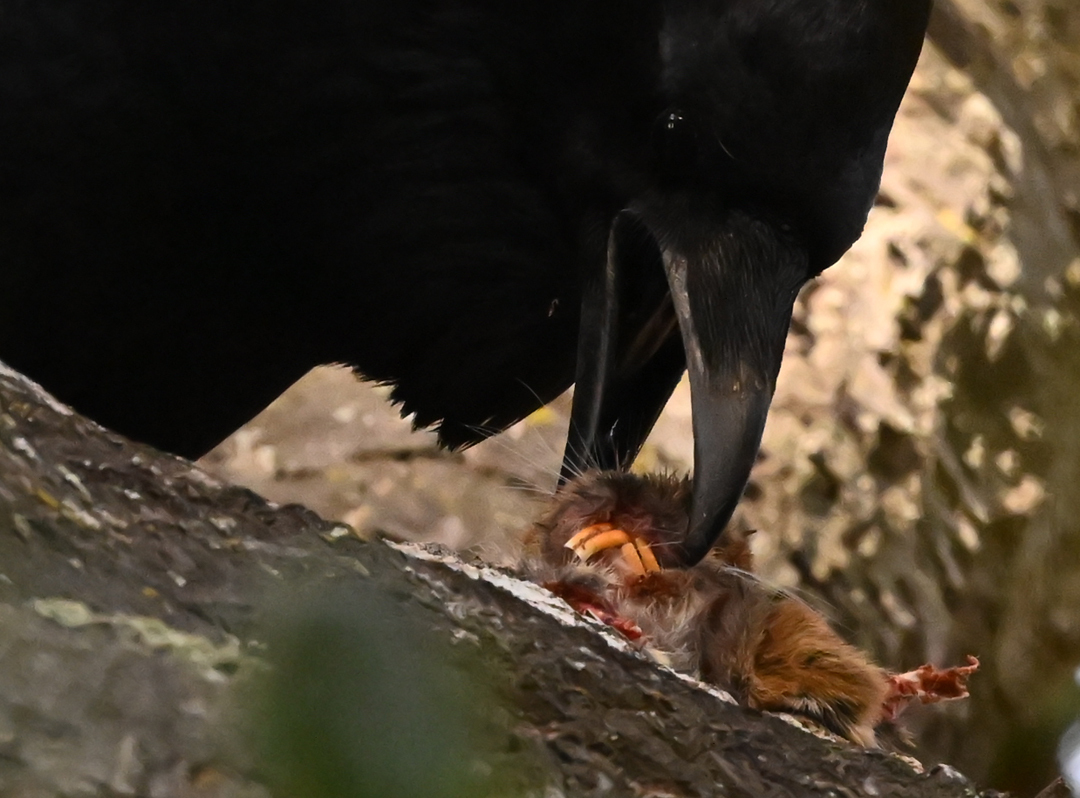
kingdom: Animalia
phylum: Chordata
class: Aves
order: Passeriformes
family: Corvidae
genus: Corvus
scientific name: Corvus corax
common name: Common raven
